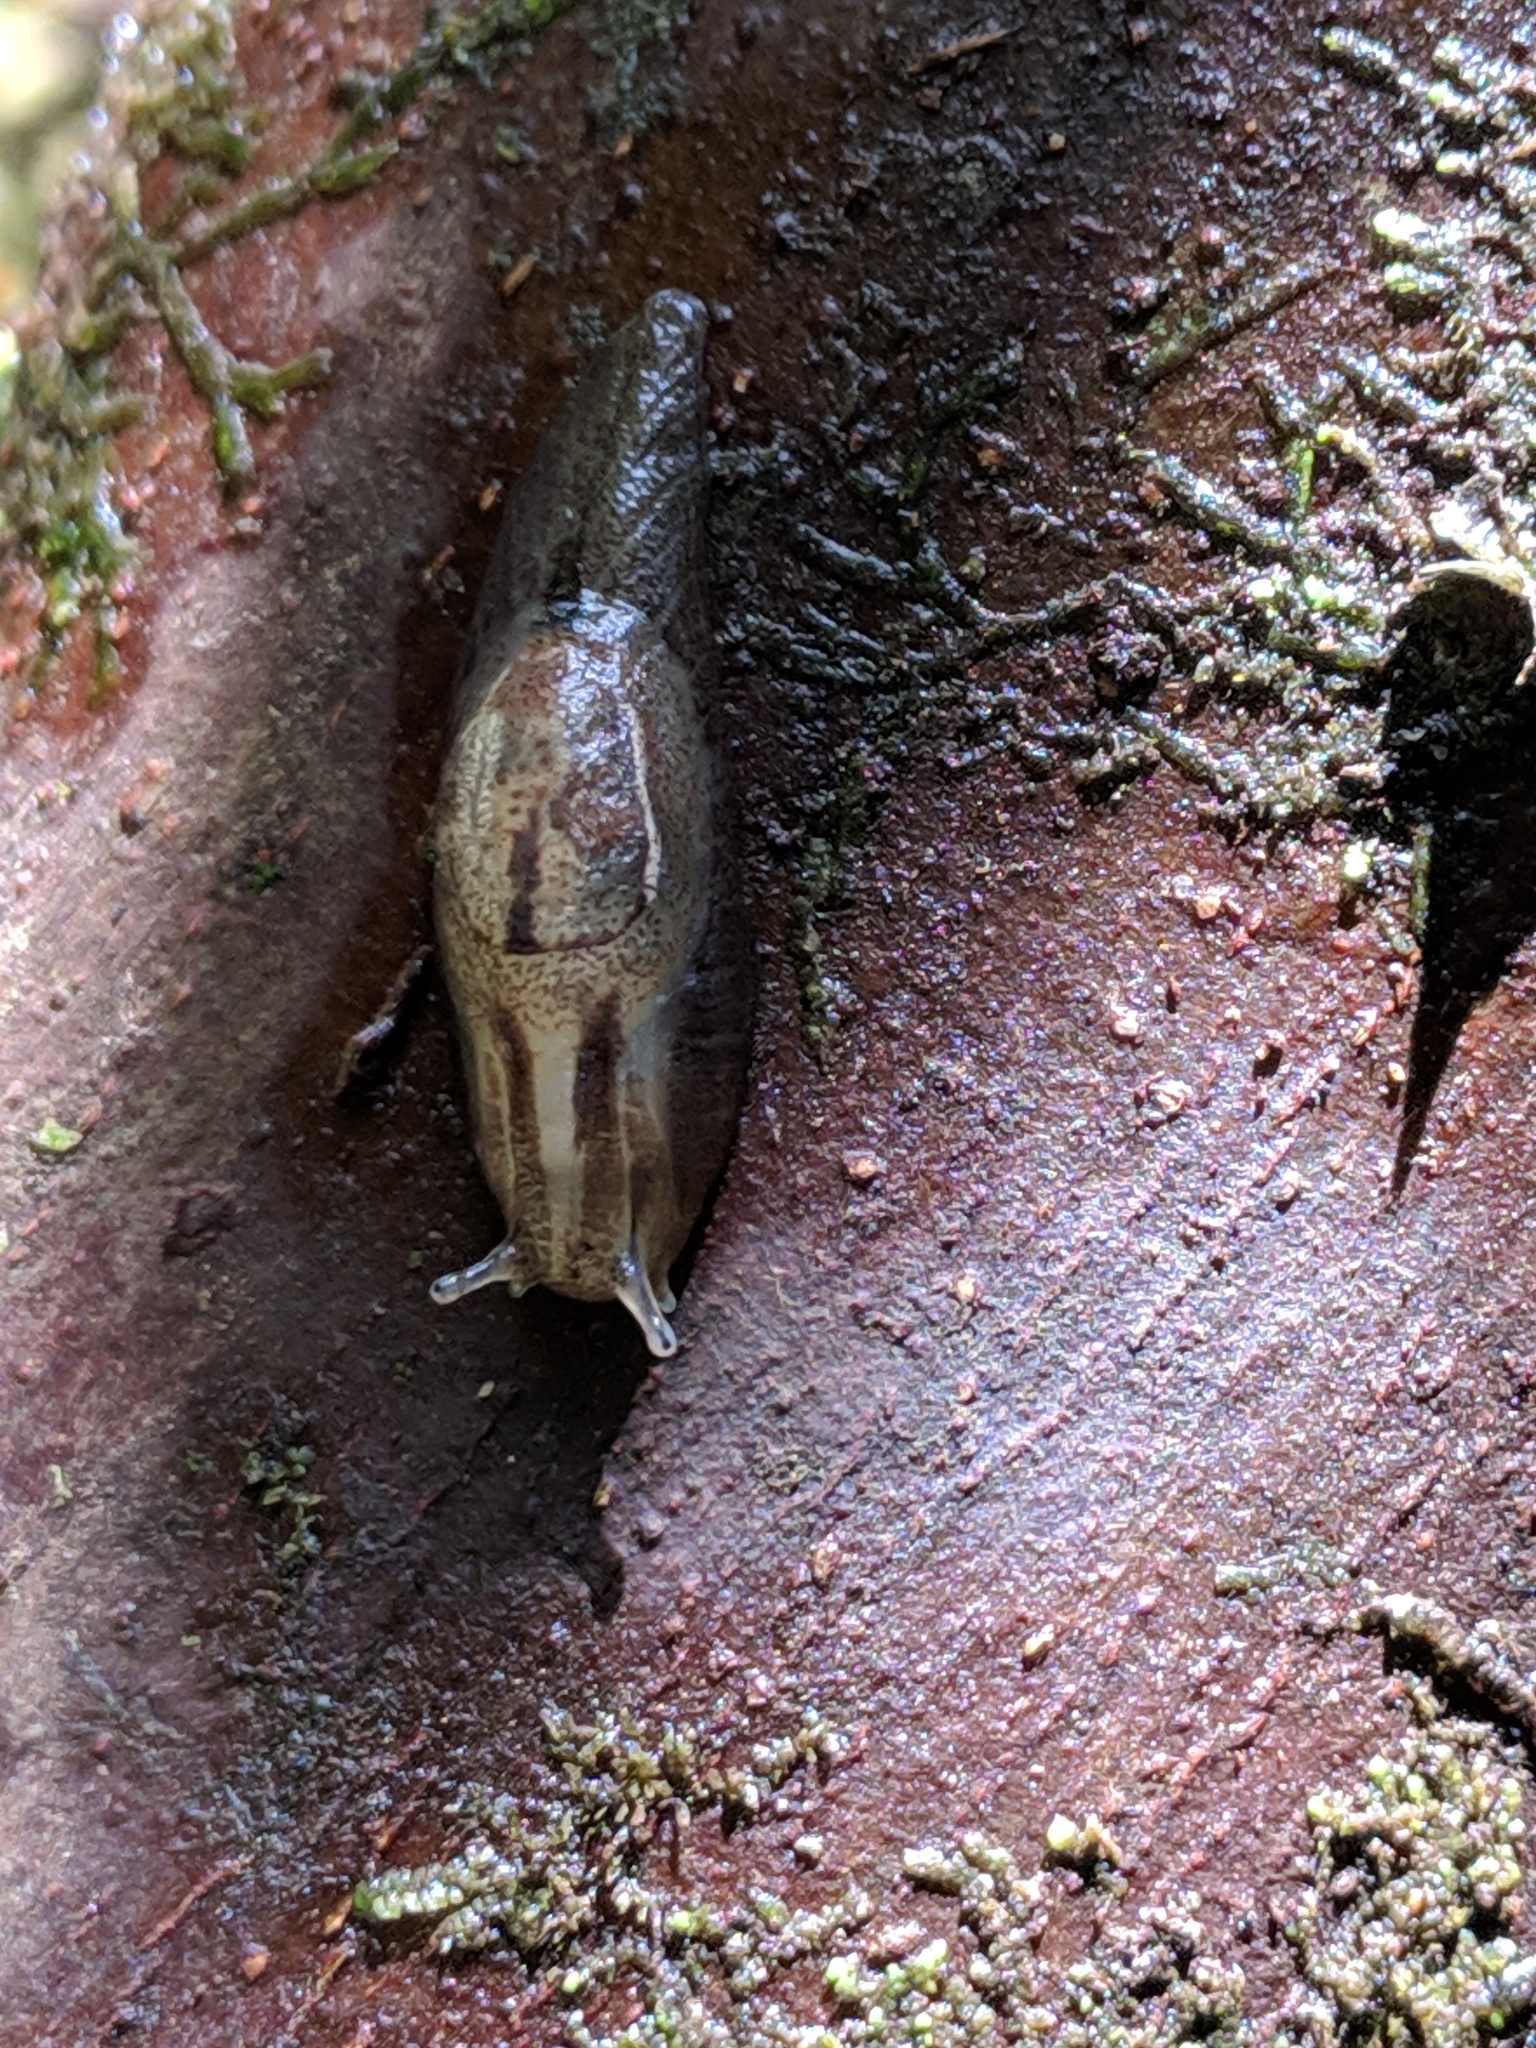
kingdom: Animalia
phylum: Mollusca
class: Gastropoda
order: Stylommatophora
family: Succineidae
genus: Hyalimax
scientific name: Hyalimax maillardi
